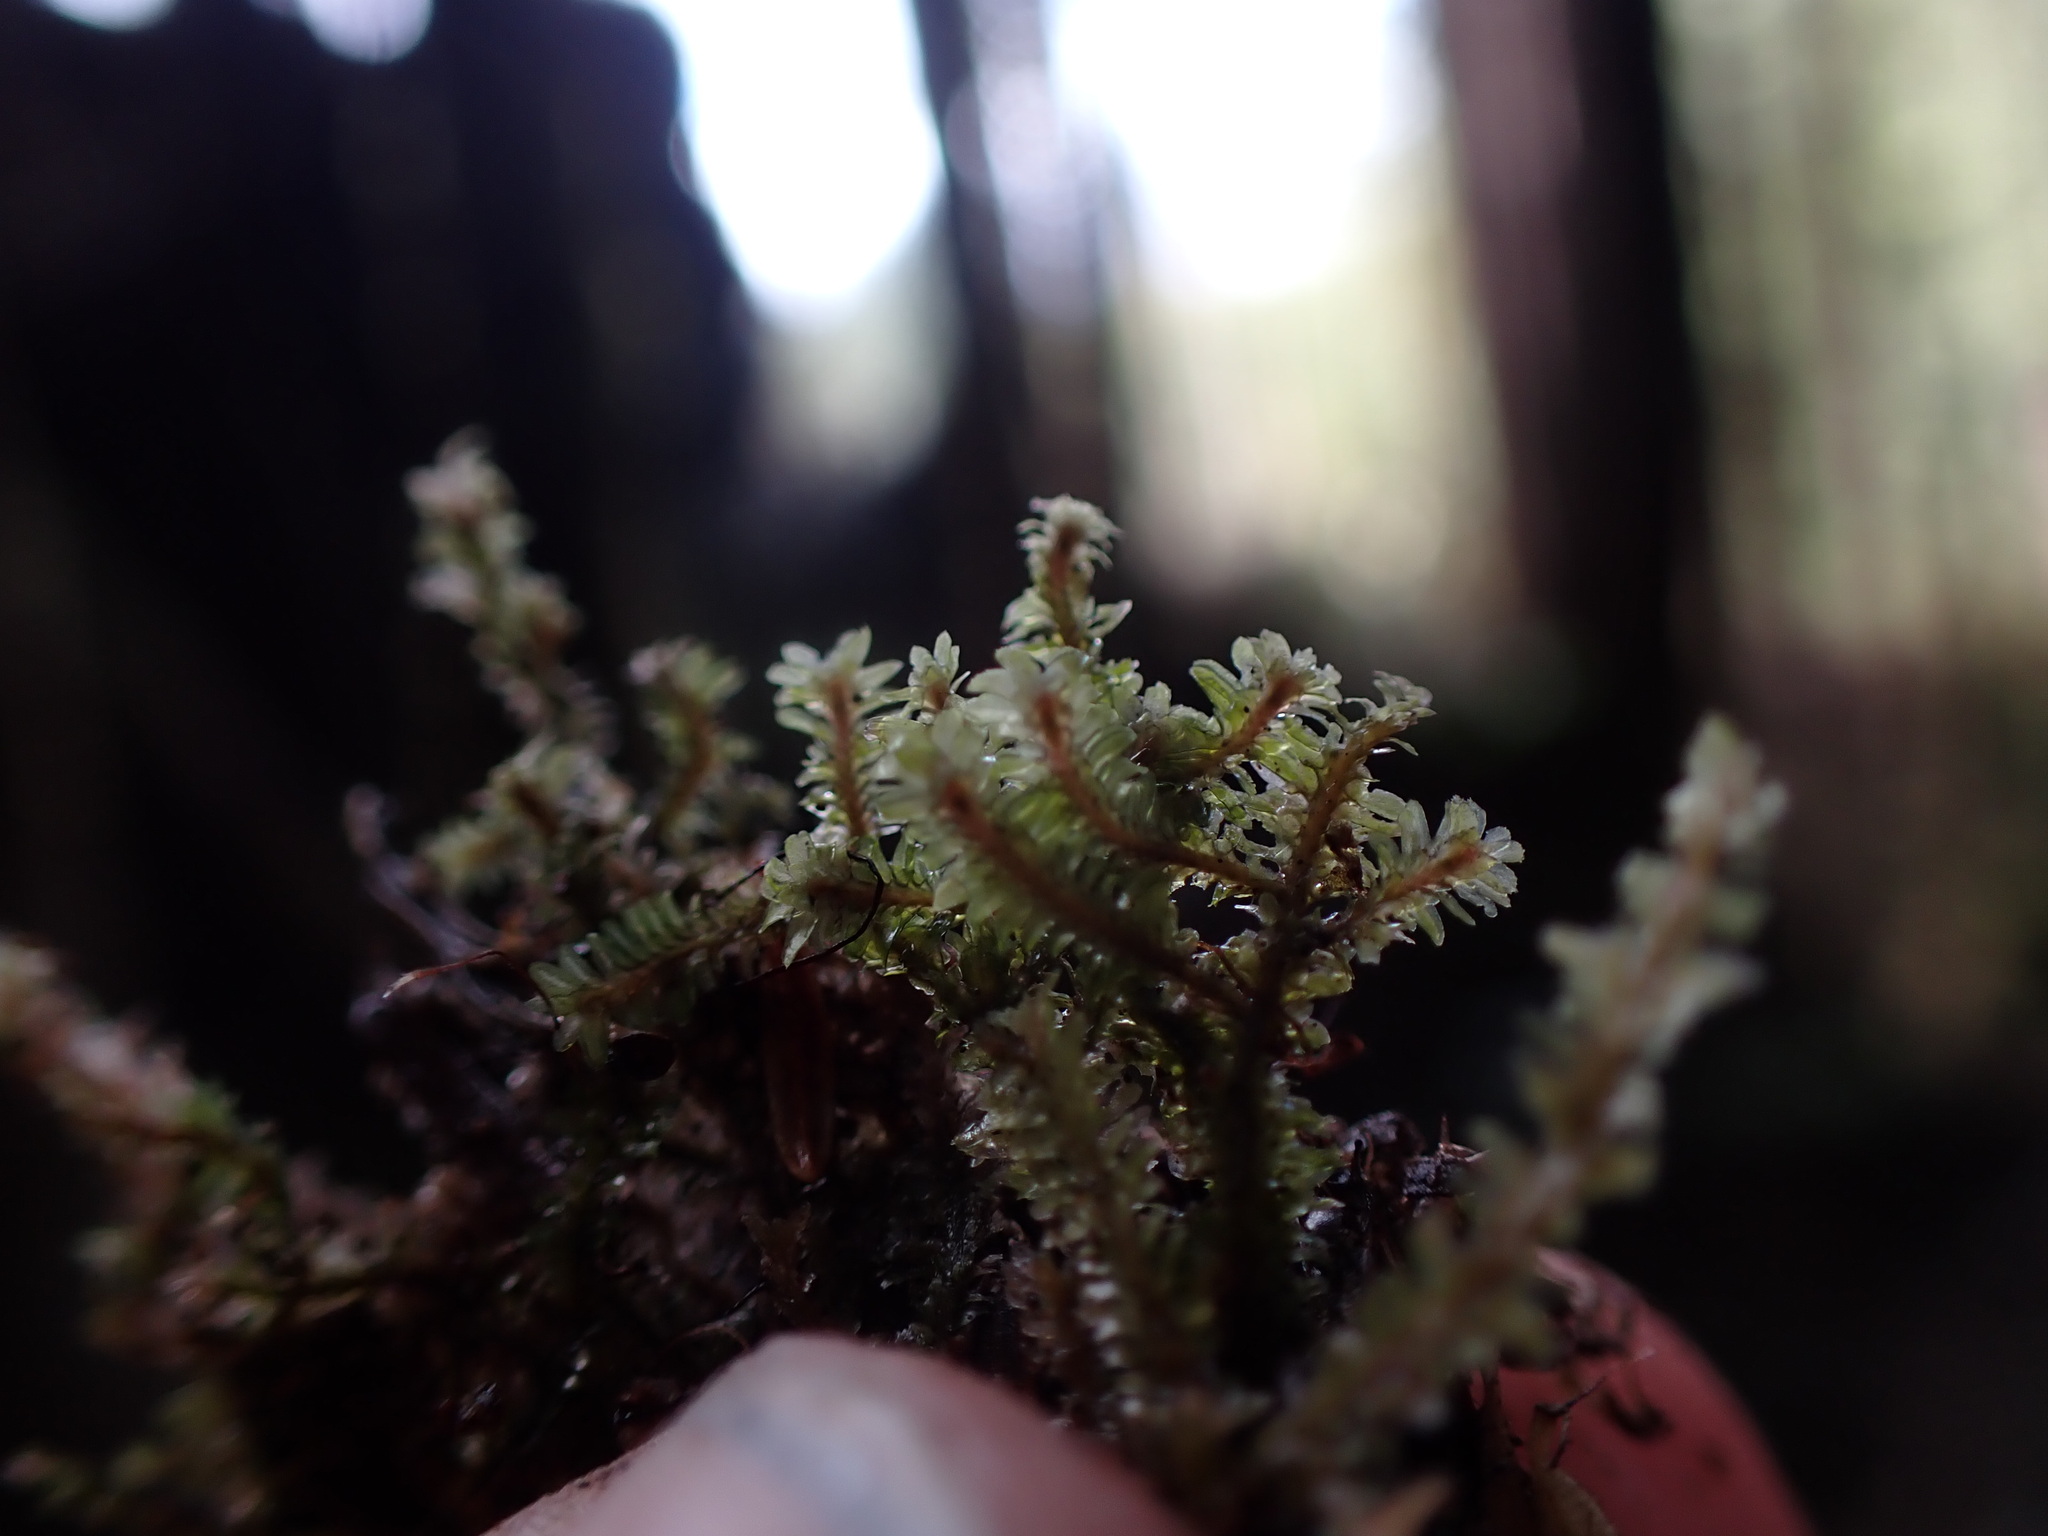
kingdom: Plantae
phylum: Marchantiophyta
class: Jungermanniopsida
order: Jungermanniales
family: Scapaniaceae
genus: Diplophyllum
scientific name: Diplophyllum albicans
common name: White earwort
